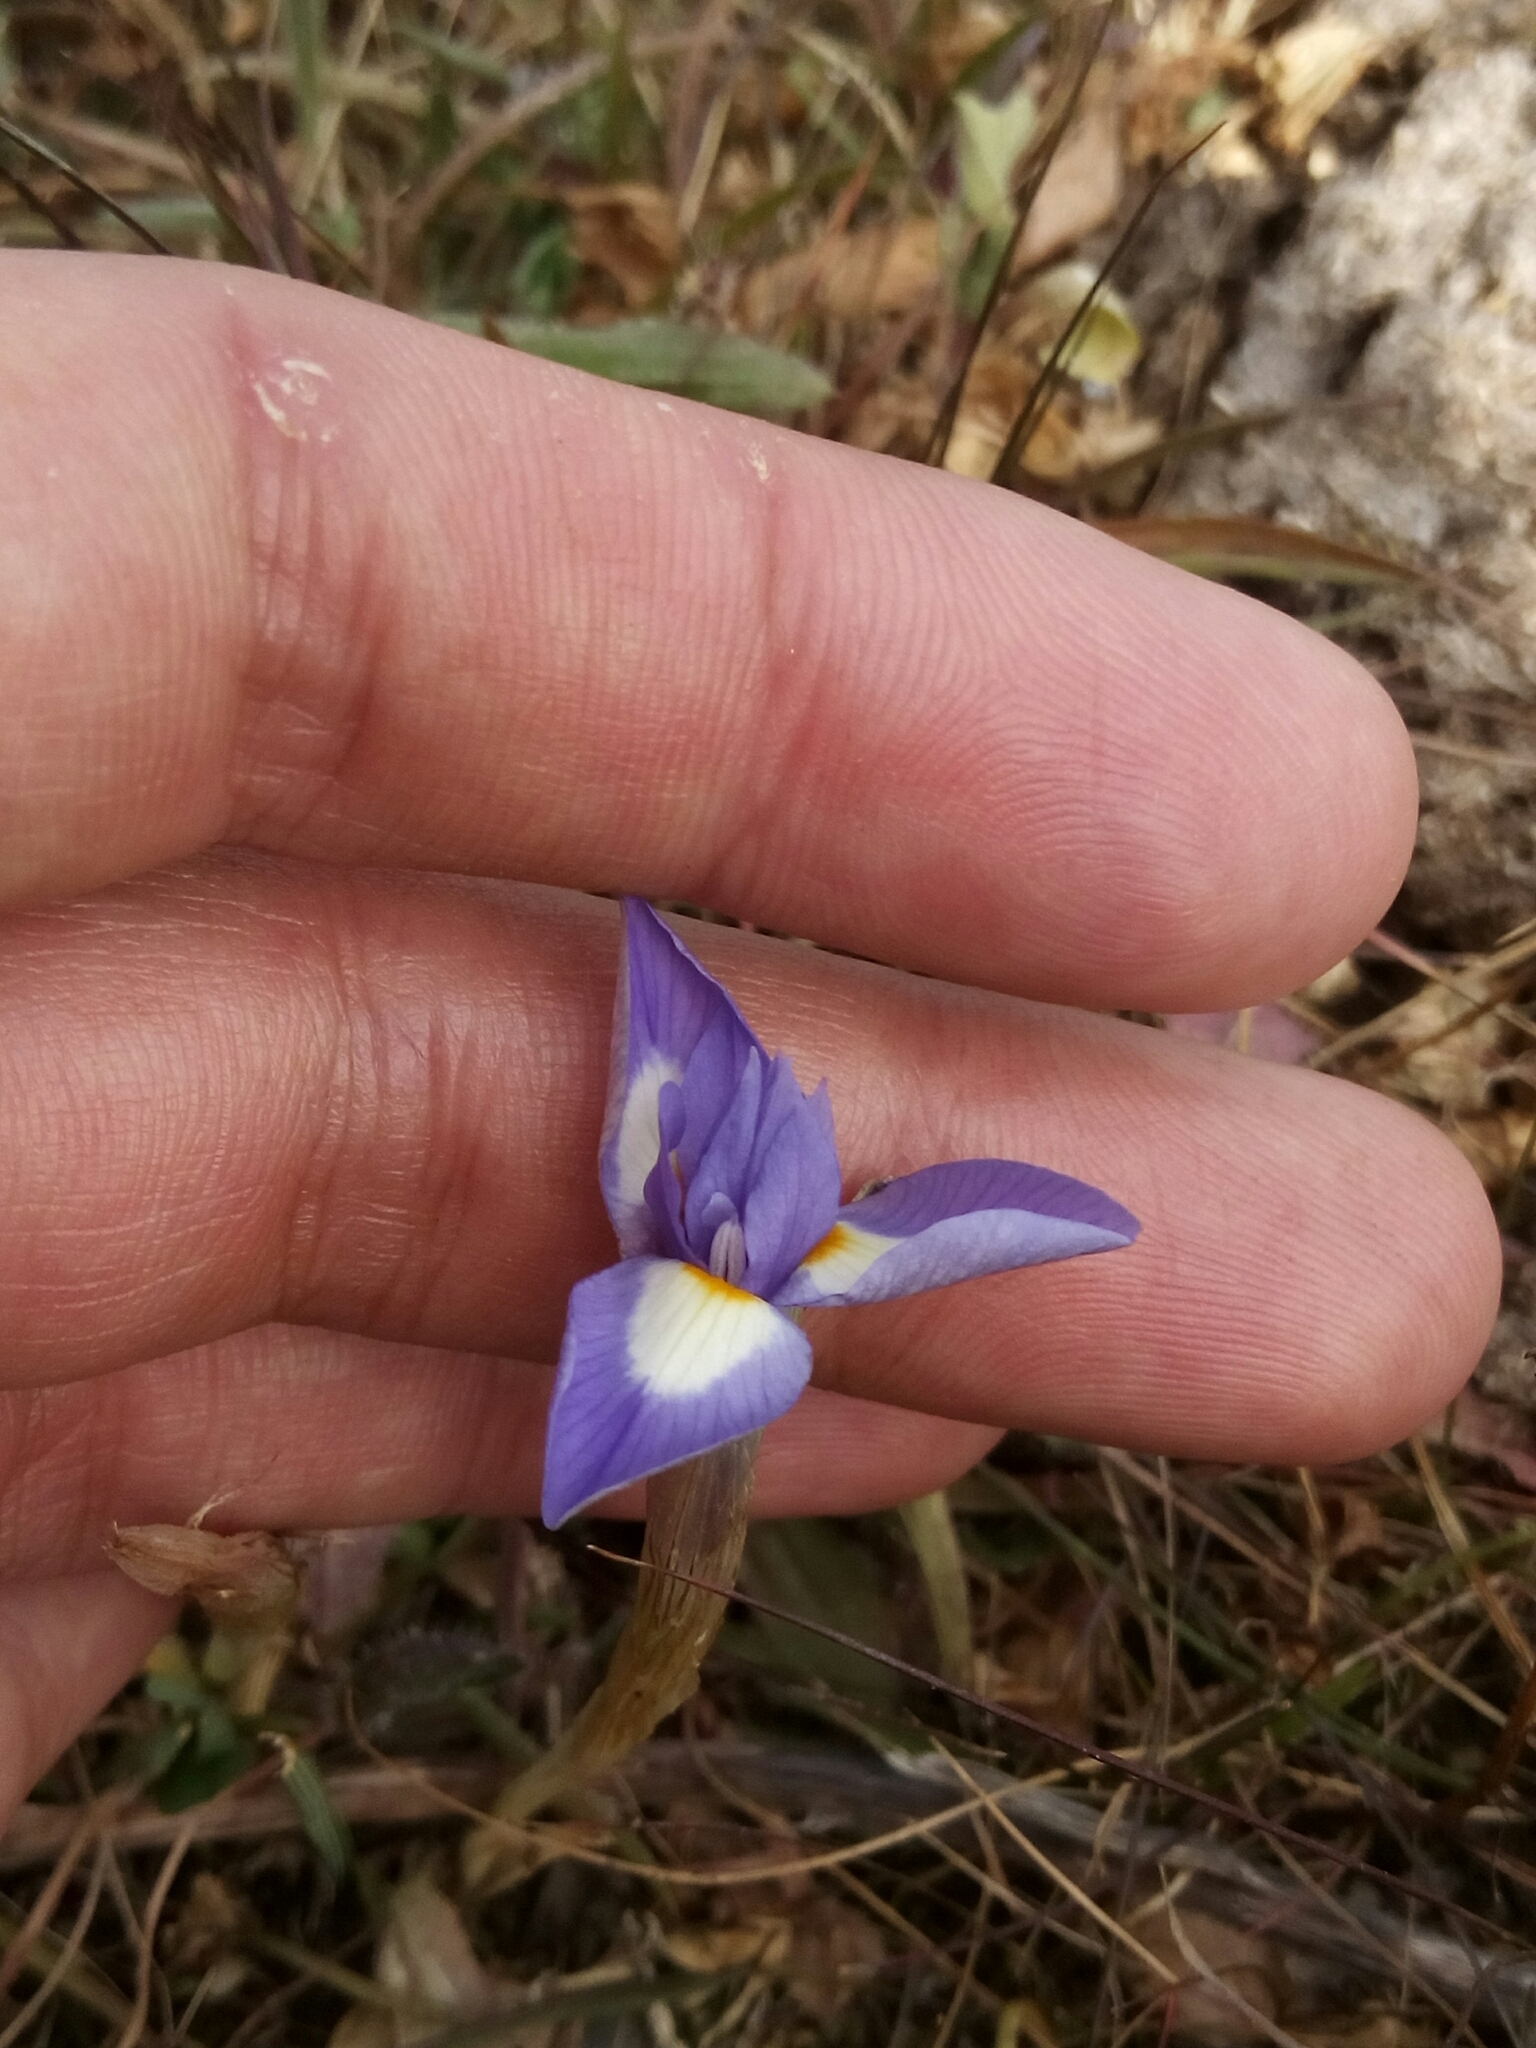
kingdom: Plantae
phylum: Tracheophyta
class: Liliopsida
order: Asparagales
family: Iridaceae
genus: Moraea
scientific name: Moraea sisyrinchium
